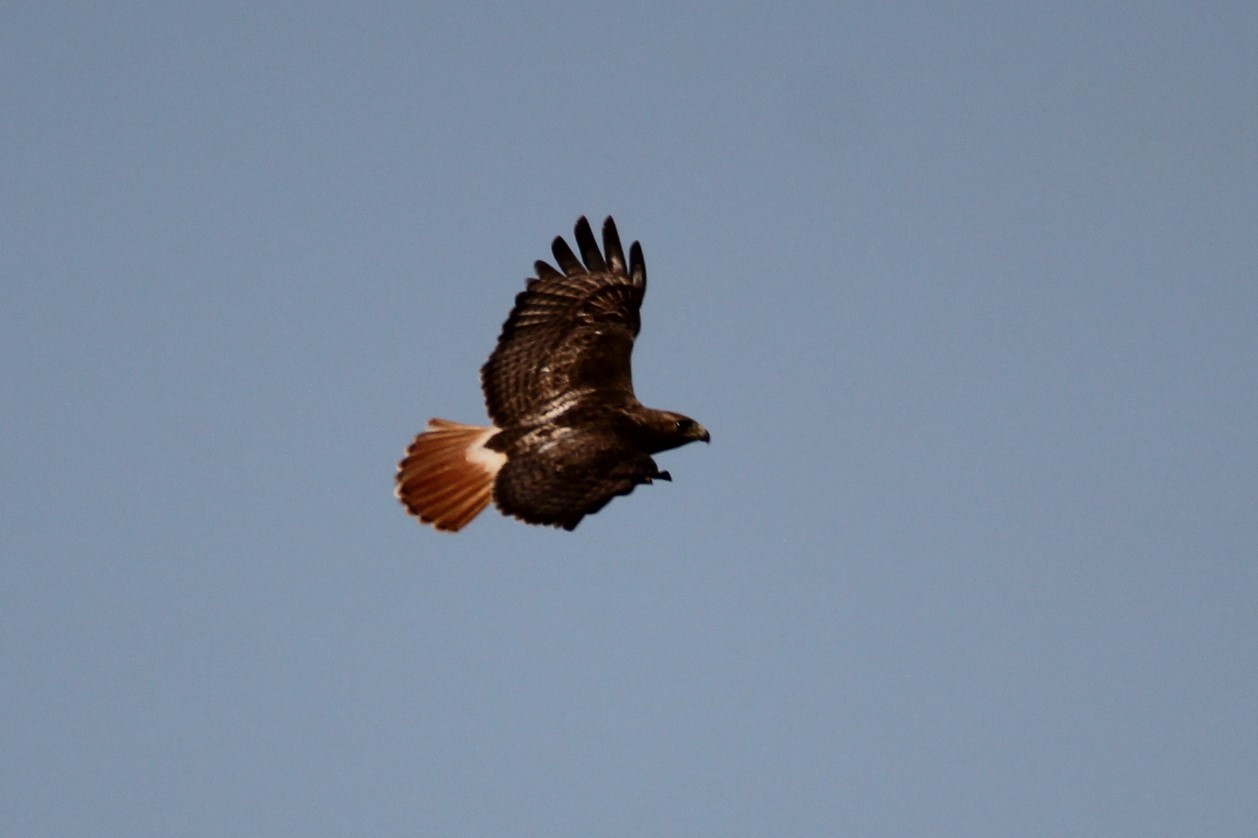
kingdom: Animalia
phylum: Chordata
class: Aves
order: Accipitriformes
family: Accipitridae
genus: Buteo
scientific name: Buteo jamaicensis
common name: Red-tailed hawk
